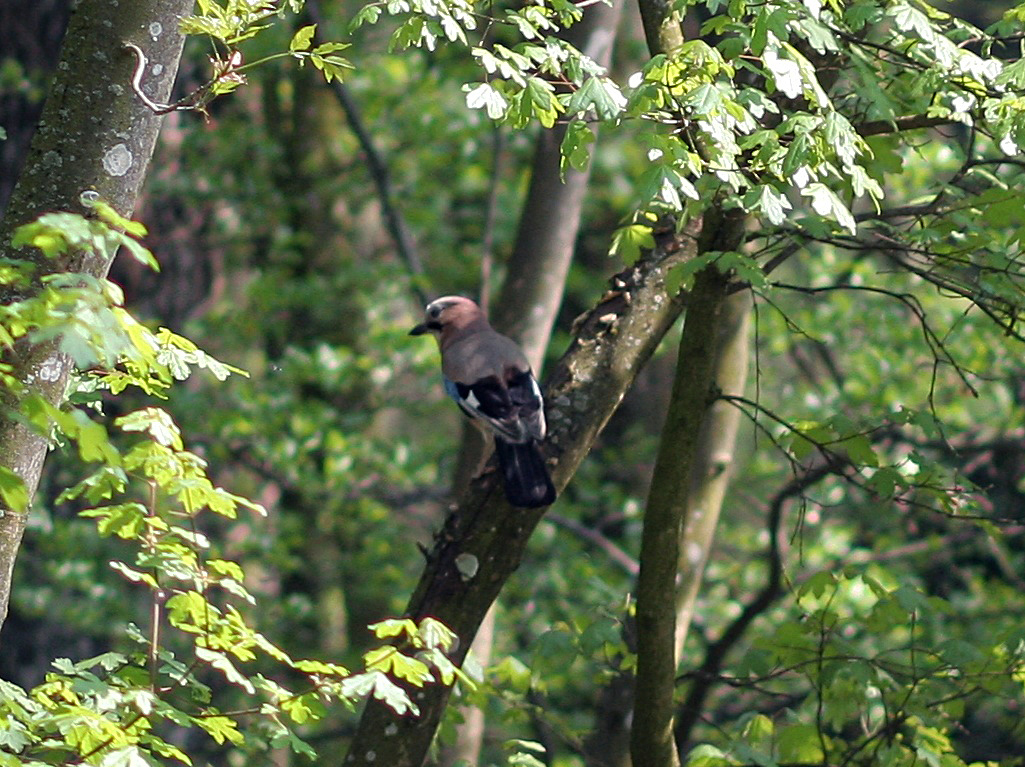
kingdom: Animalia
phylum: Chordata
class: Aves
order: Passeriformes
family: Corvidae
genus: Garrulus
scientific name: Garrulus glandarius
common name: Eurasian jay
